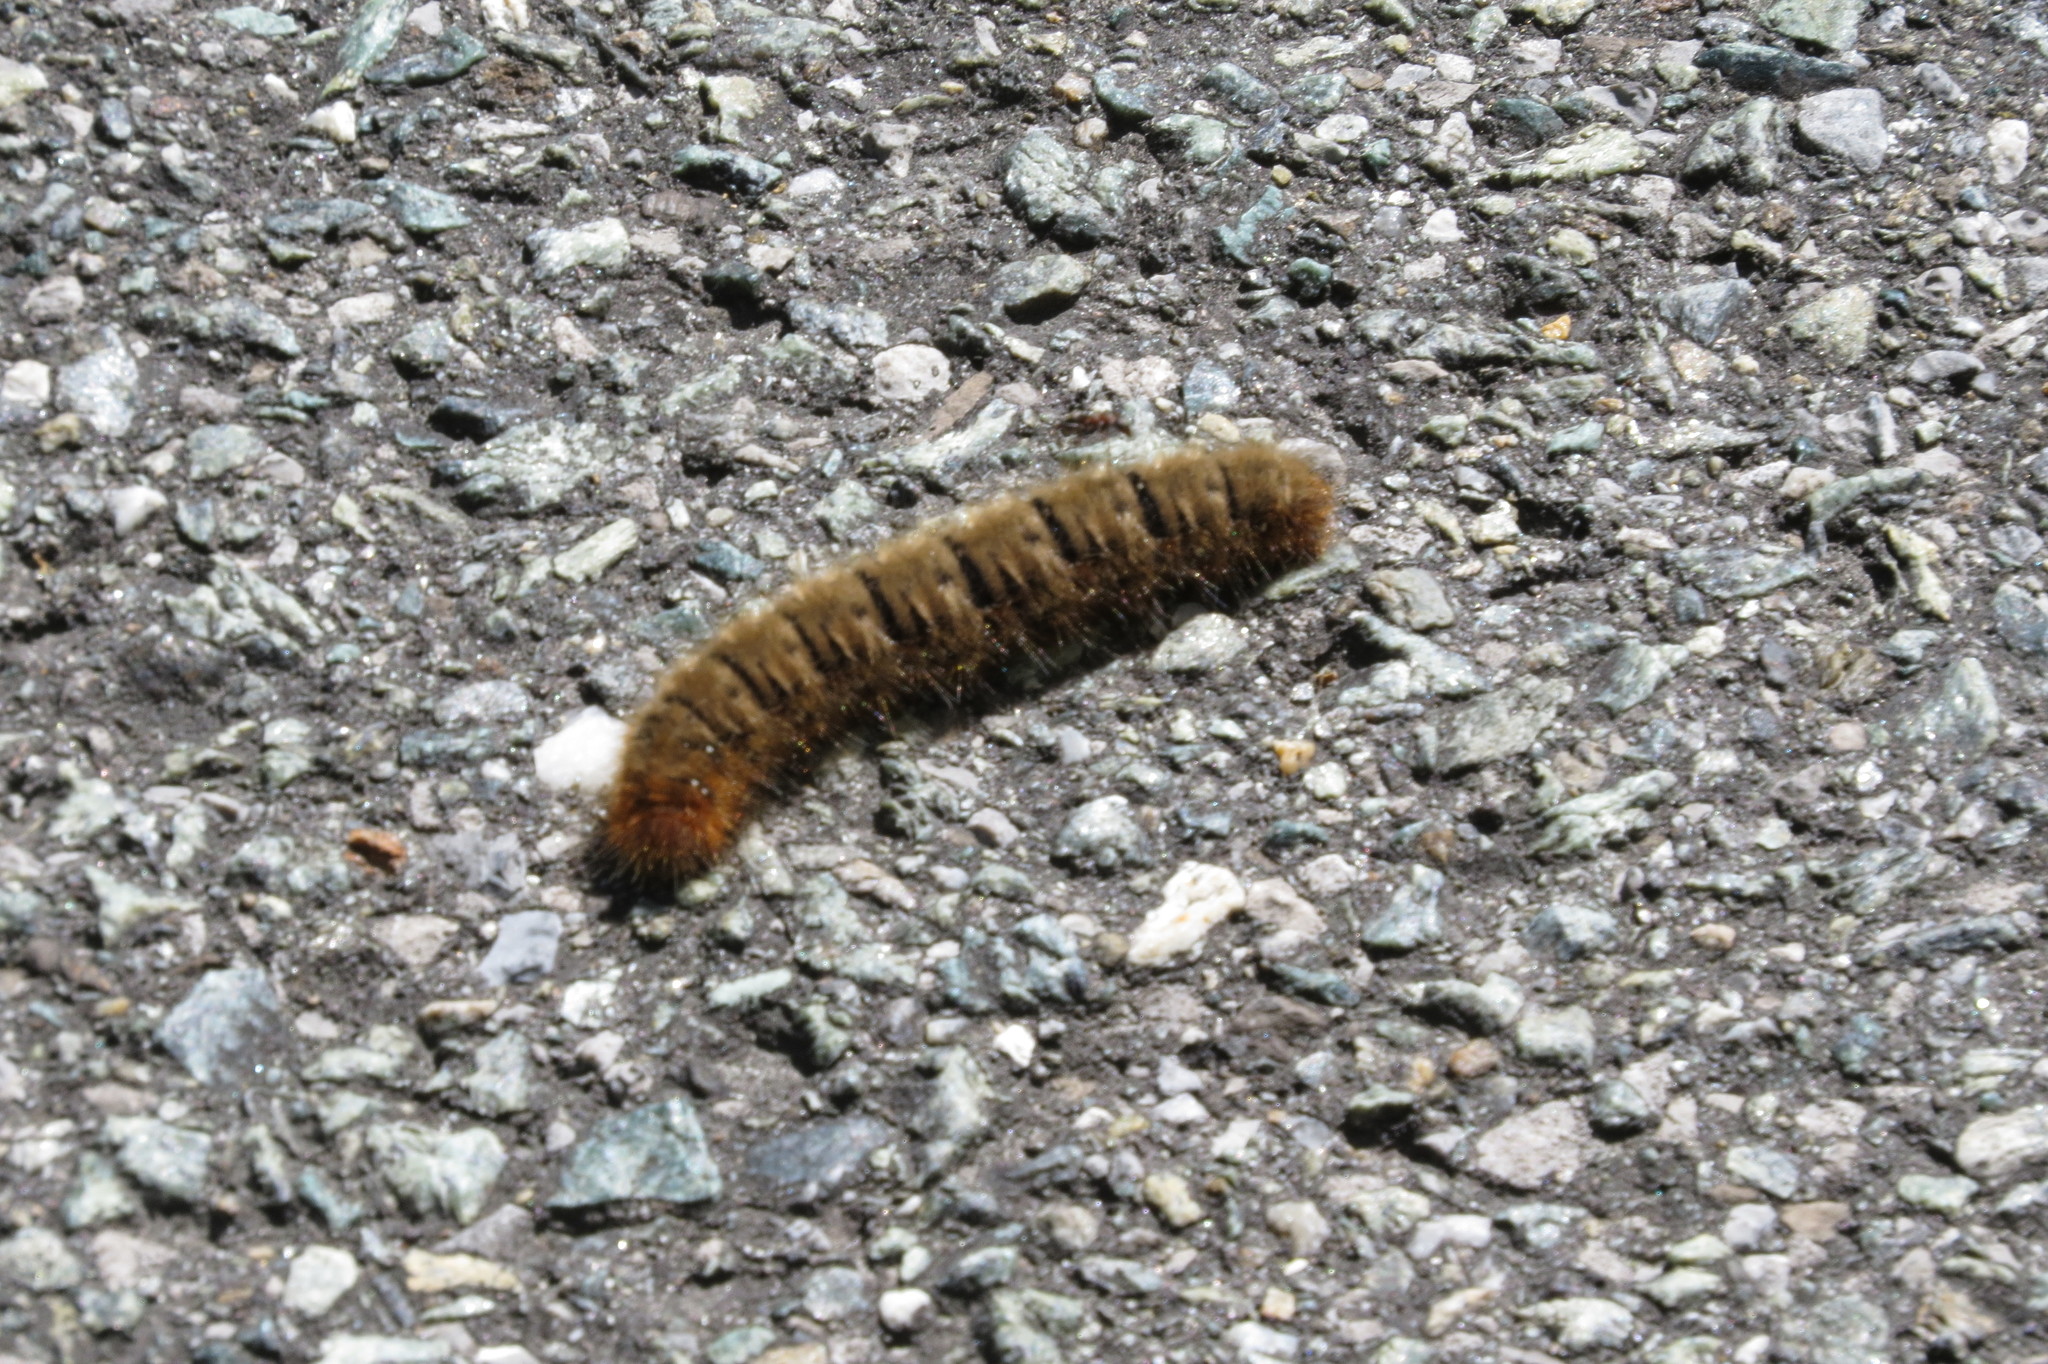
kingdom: Animalia
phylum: Arthropoda
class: Insecta
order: Lepidoptera
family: Lasiocampidae
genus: Lasiocampa
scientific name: Lasiocampa quercus
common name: Oak eggar
